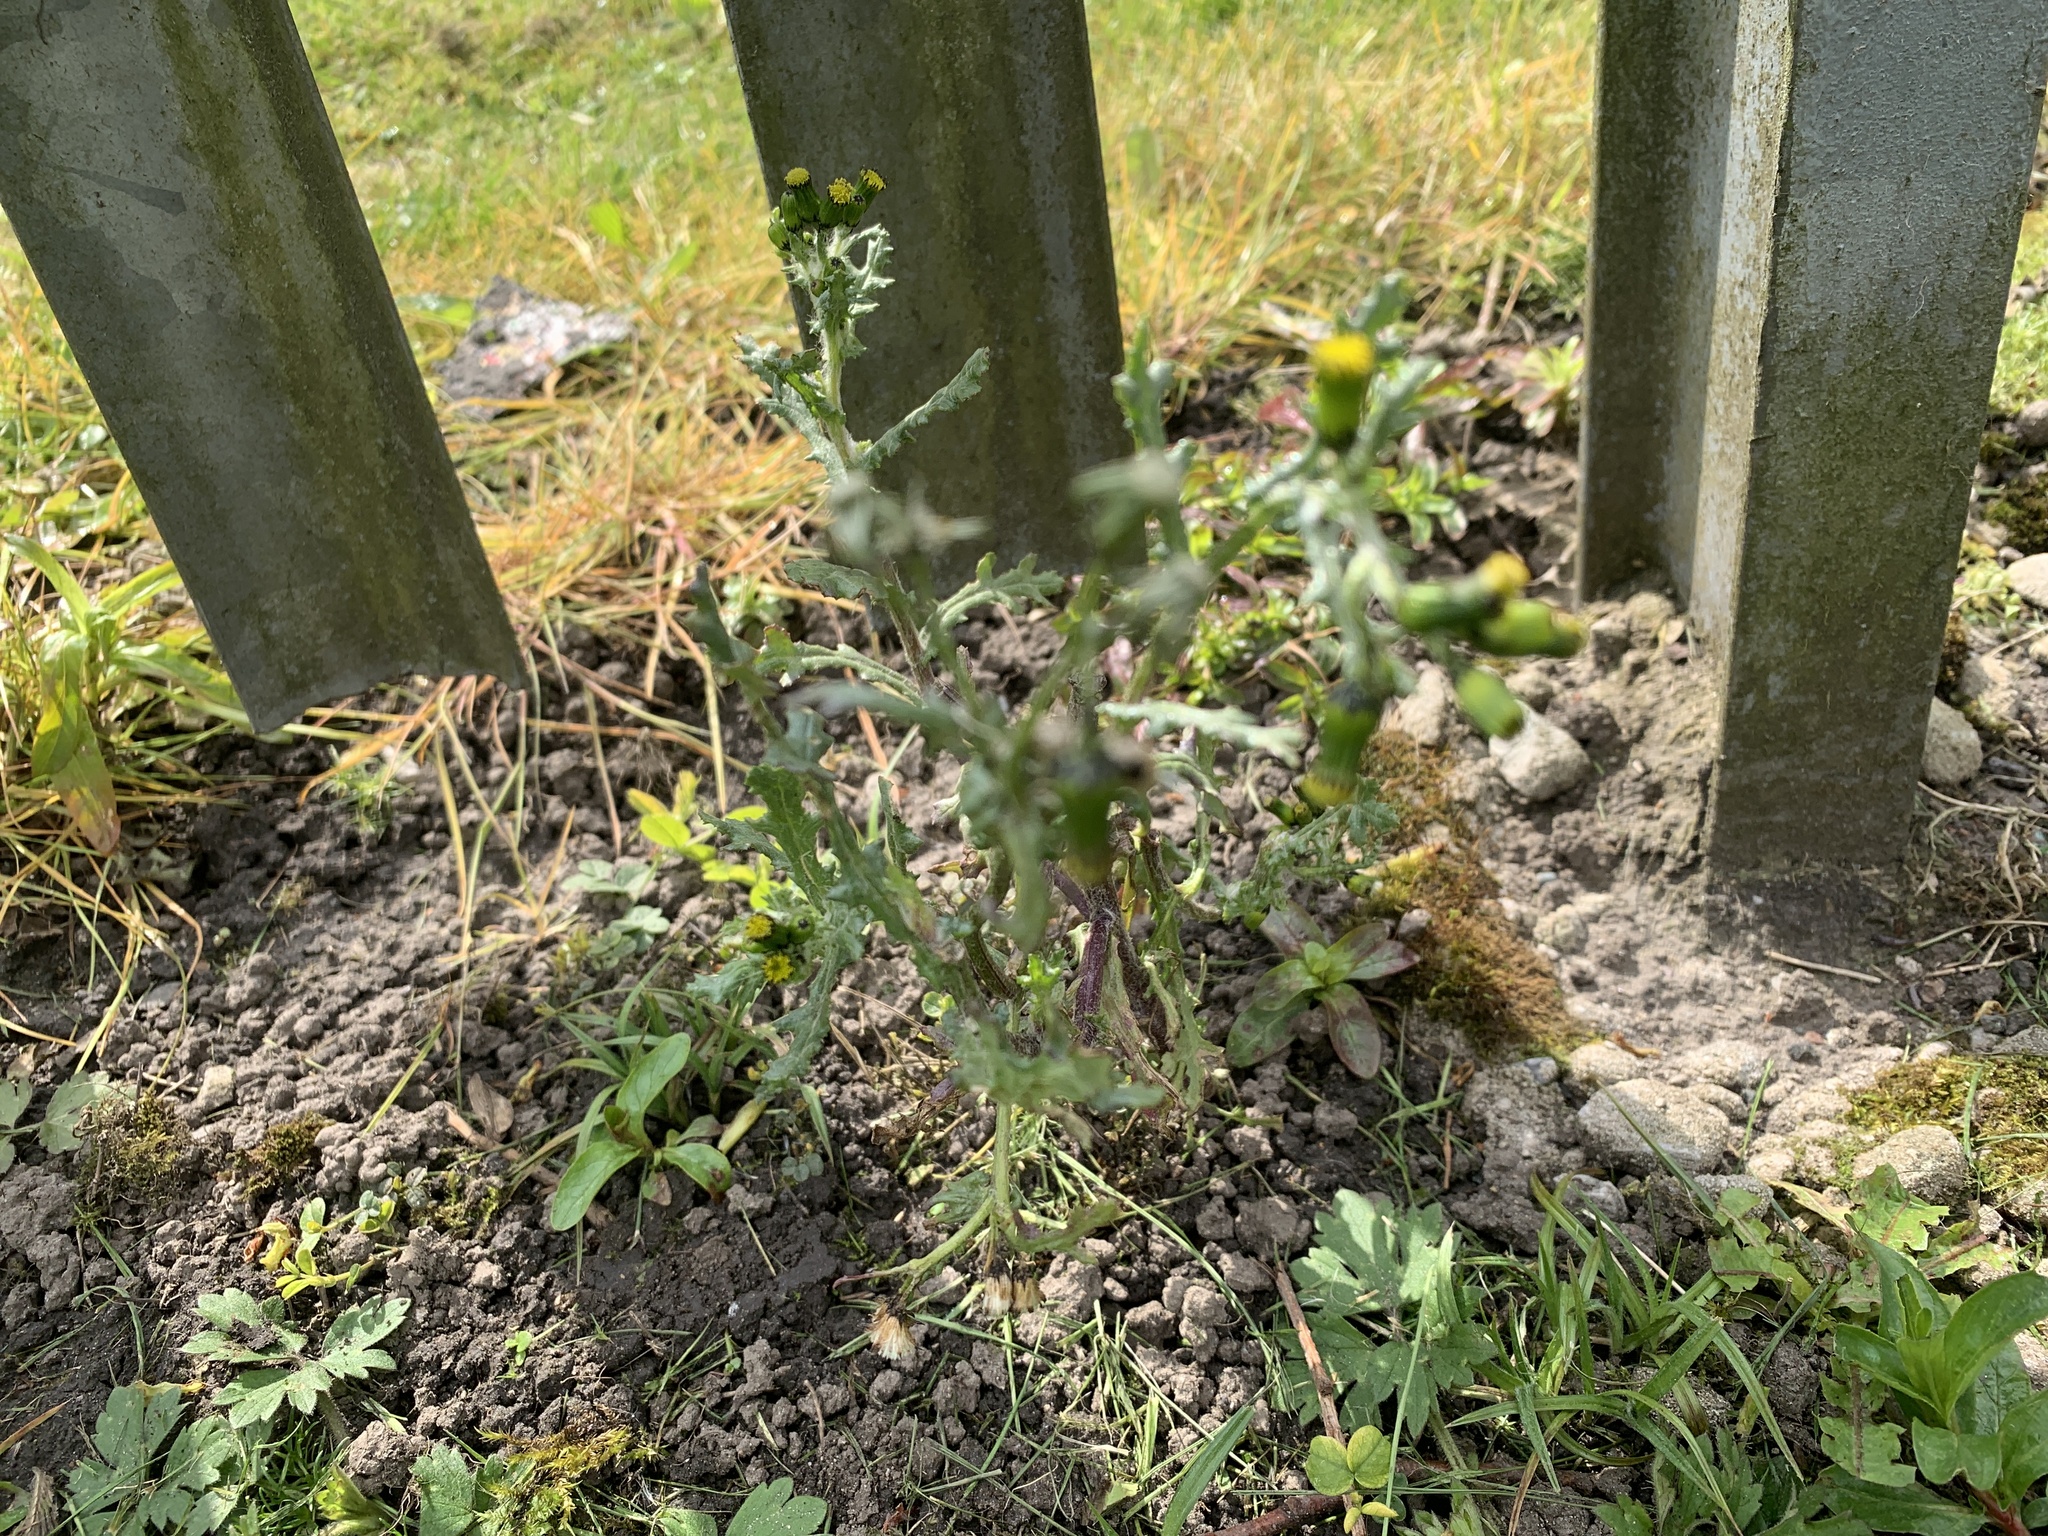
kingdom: Plantae
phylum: Tracheophyta
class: Magnoliopsida
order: Asterales
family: Asteraceae
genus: Senecio
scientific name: Senecio vulgaris
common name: Old-man-in-the-spring
